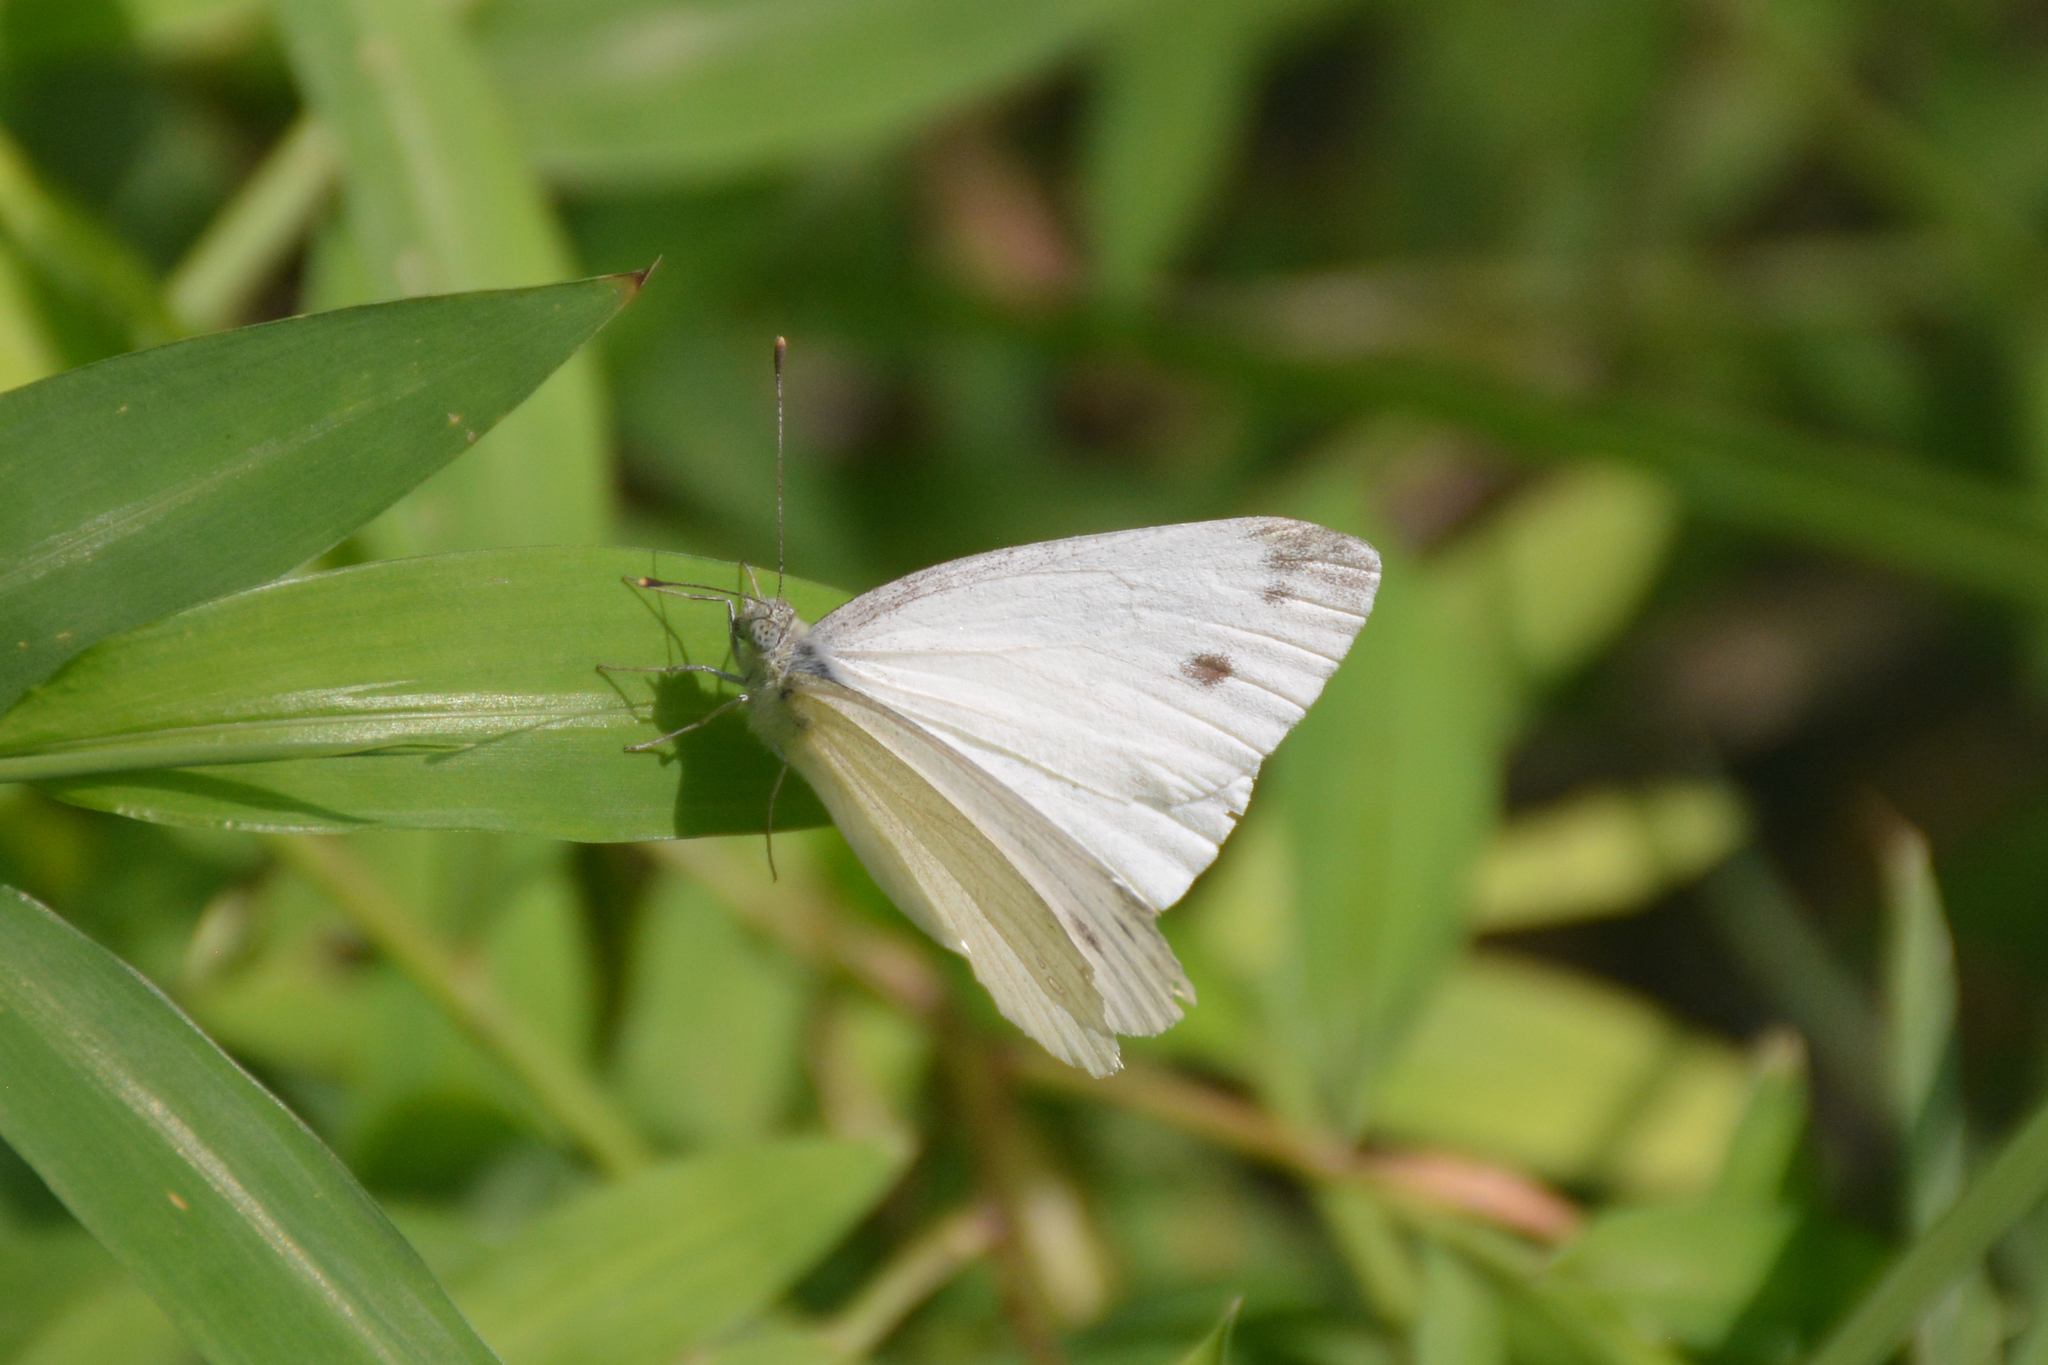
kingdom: Animalia
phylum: Arthropoda
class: Insecta
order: Lepidoptera
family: Pieridae
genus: Pieris
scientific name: Pieris ergane
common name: Mountain small white
